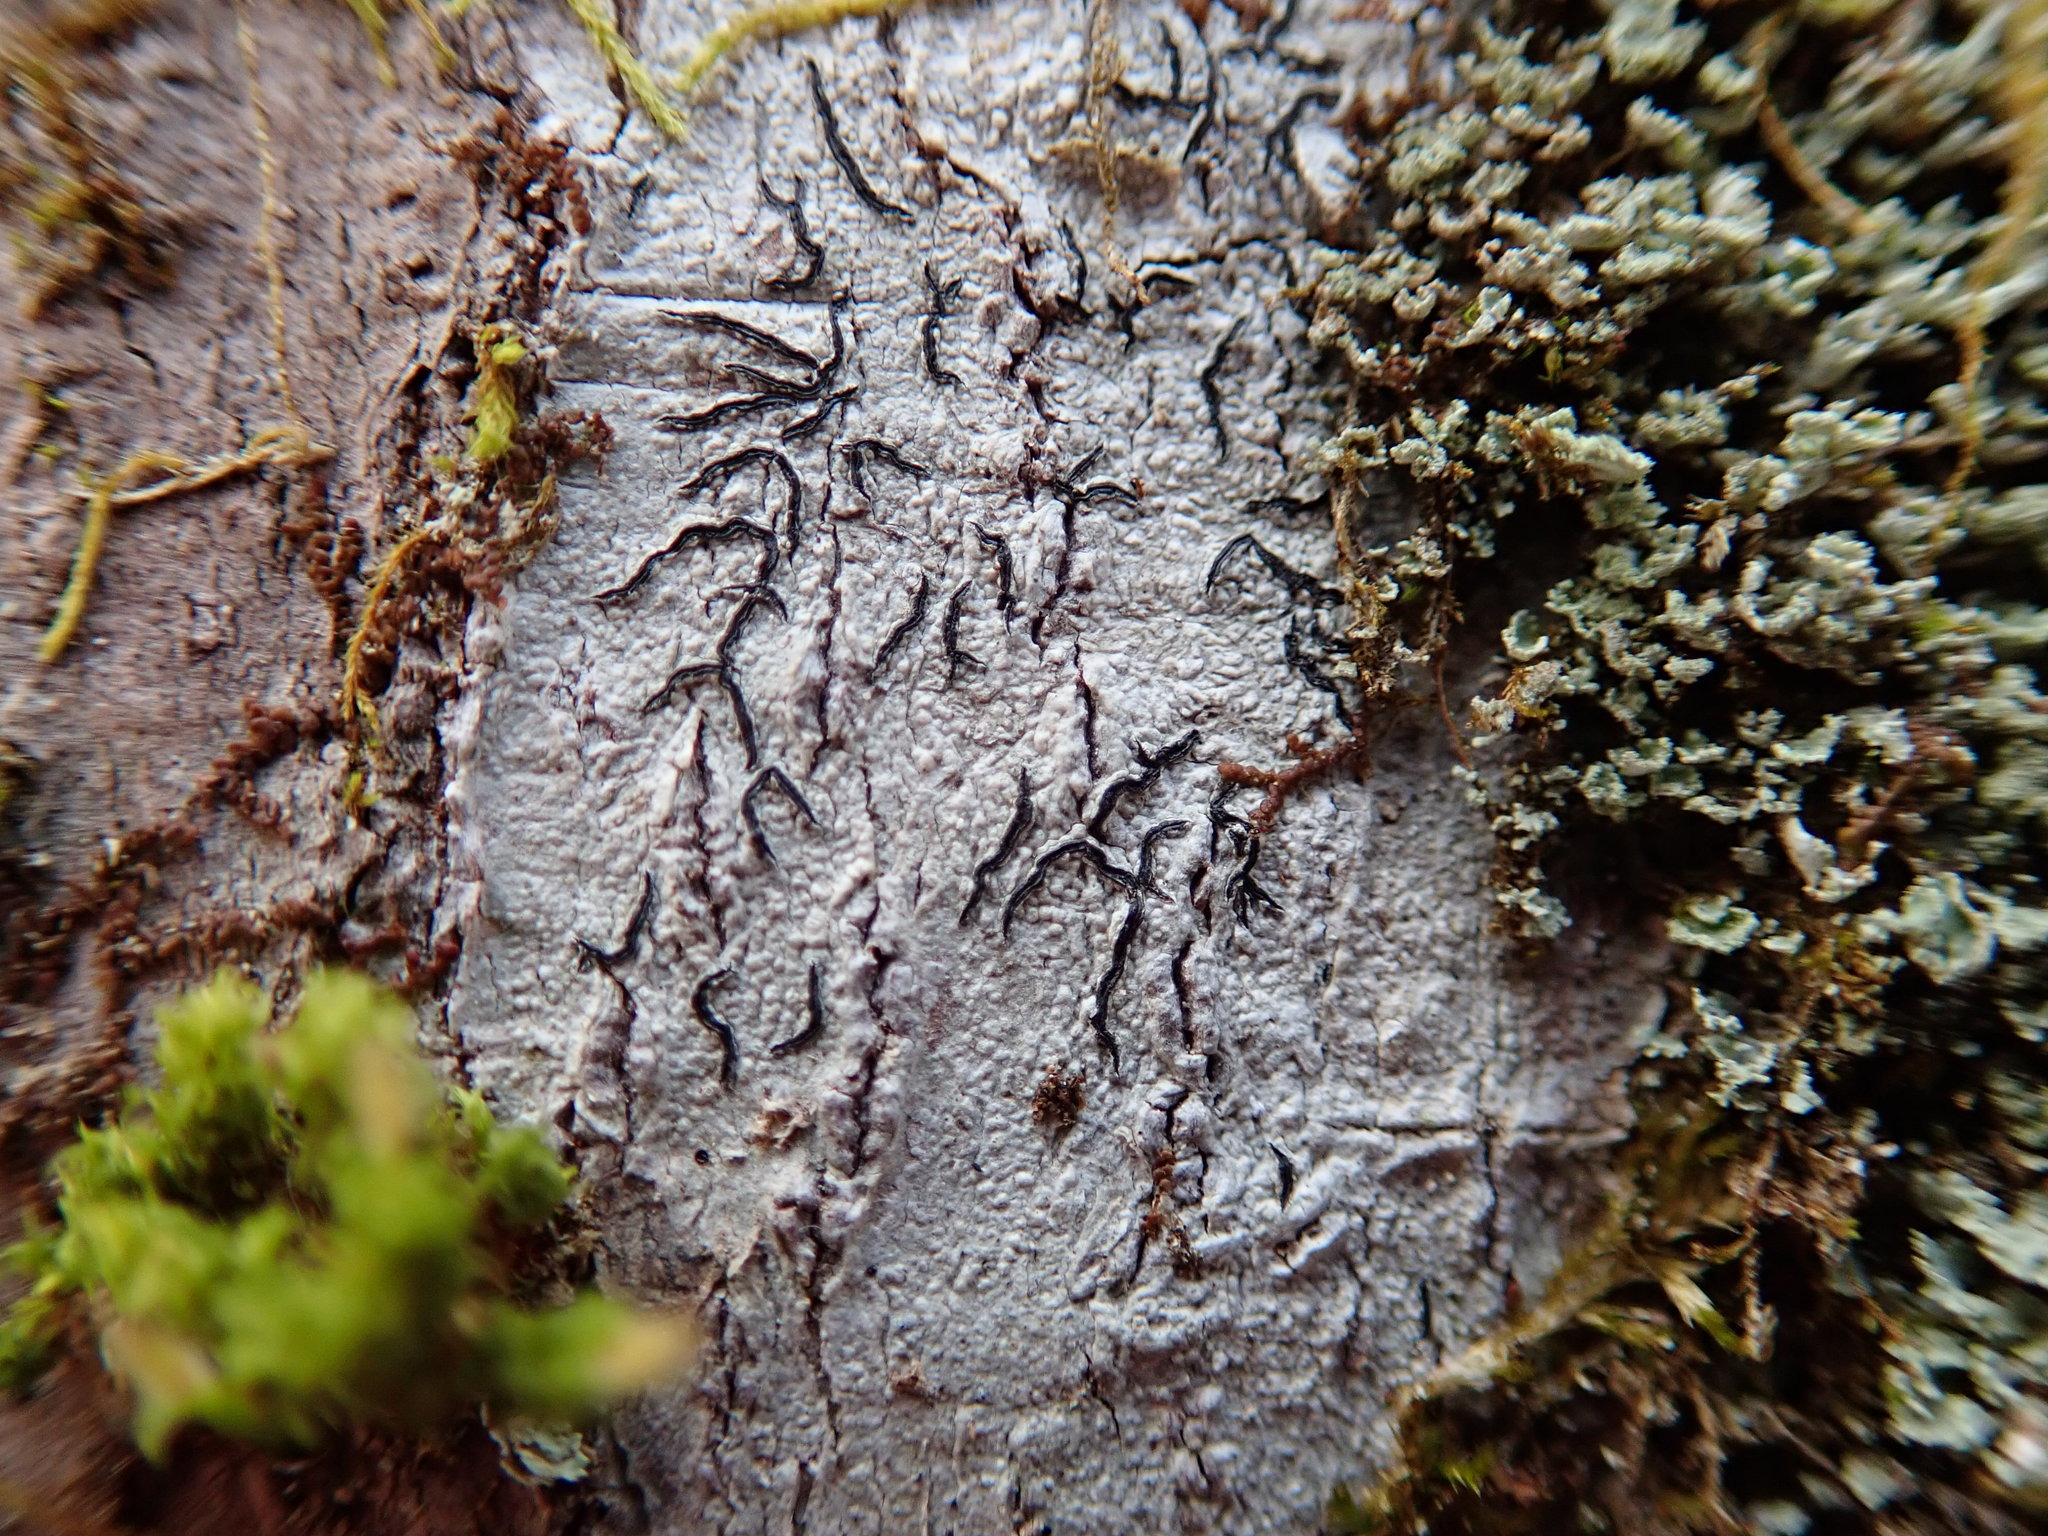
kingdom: Fungi
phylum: Ascomycota
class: Lecanoromycetes
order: Ostropales
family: Graphidaceae
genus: Graphis
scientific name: Graphis scripta
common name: Script lichen
